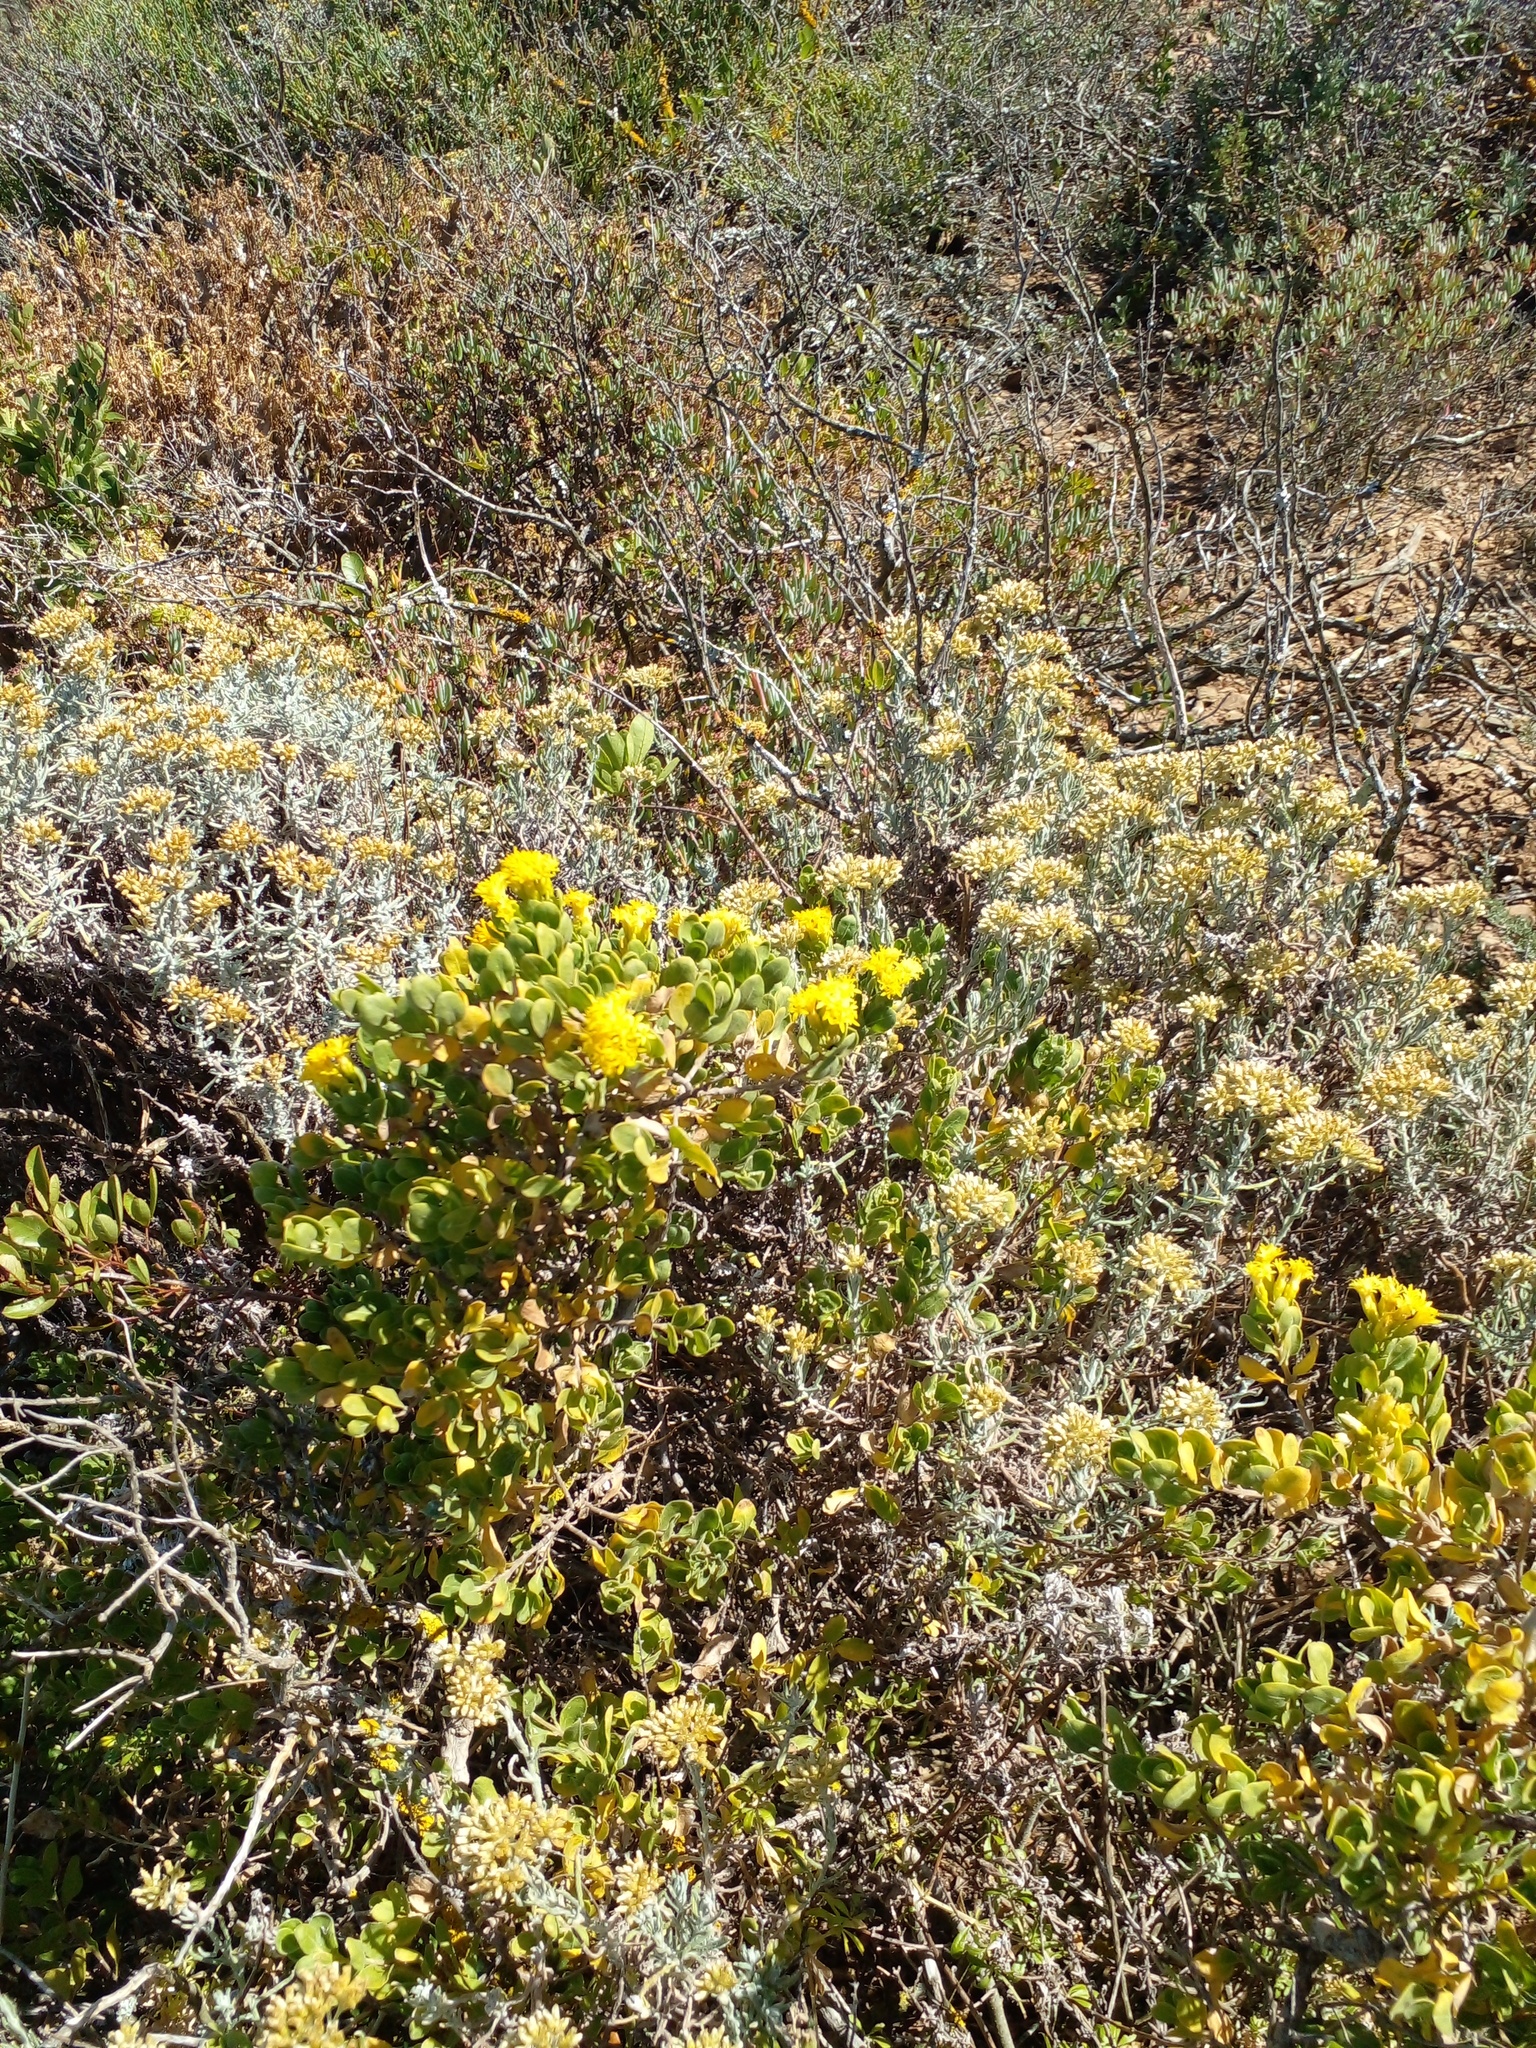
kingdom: Plantae
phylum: Tracheophyta
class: Magnoliopsida
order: Asterales
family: Asteraceae
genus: Pteronia
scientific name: Pteronia divaricata
